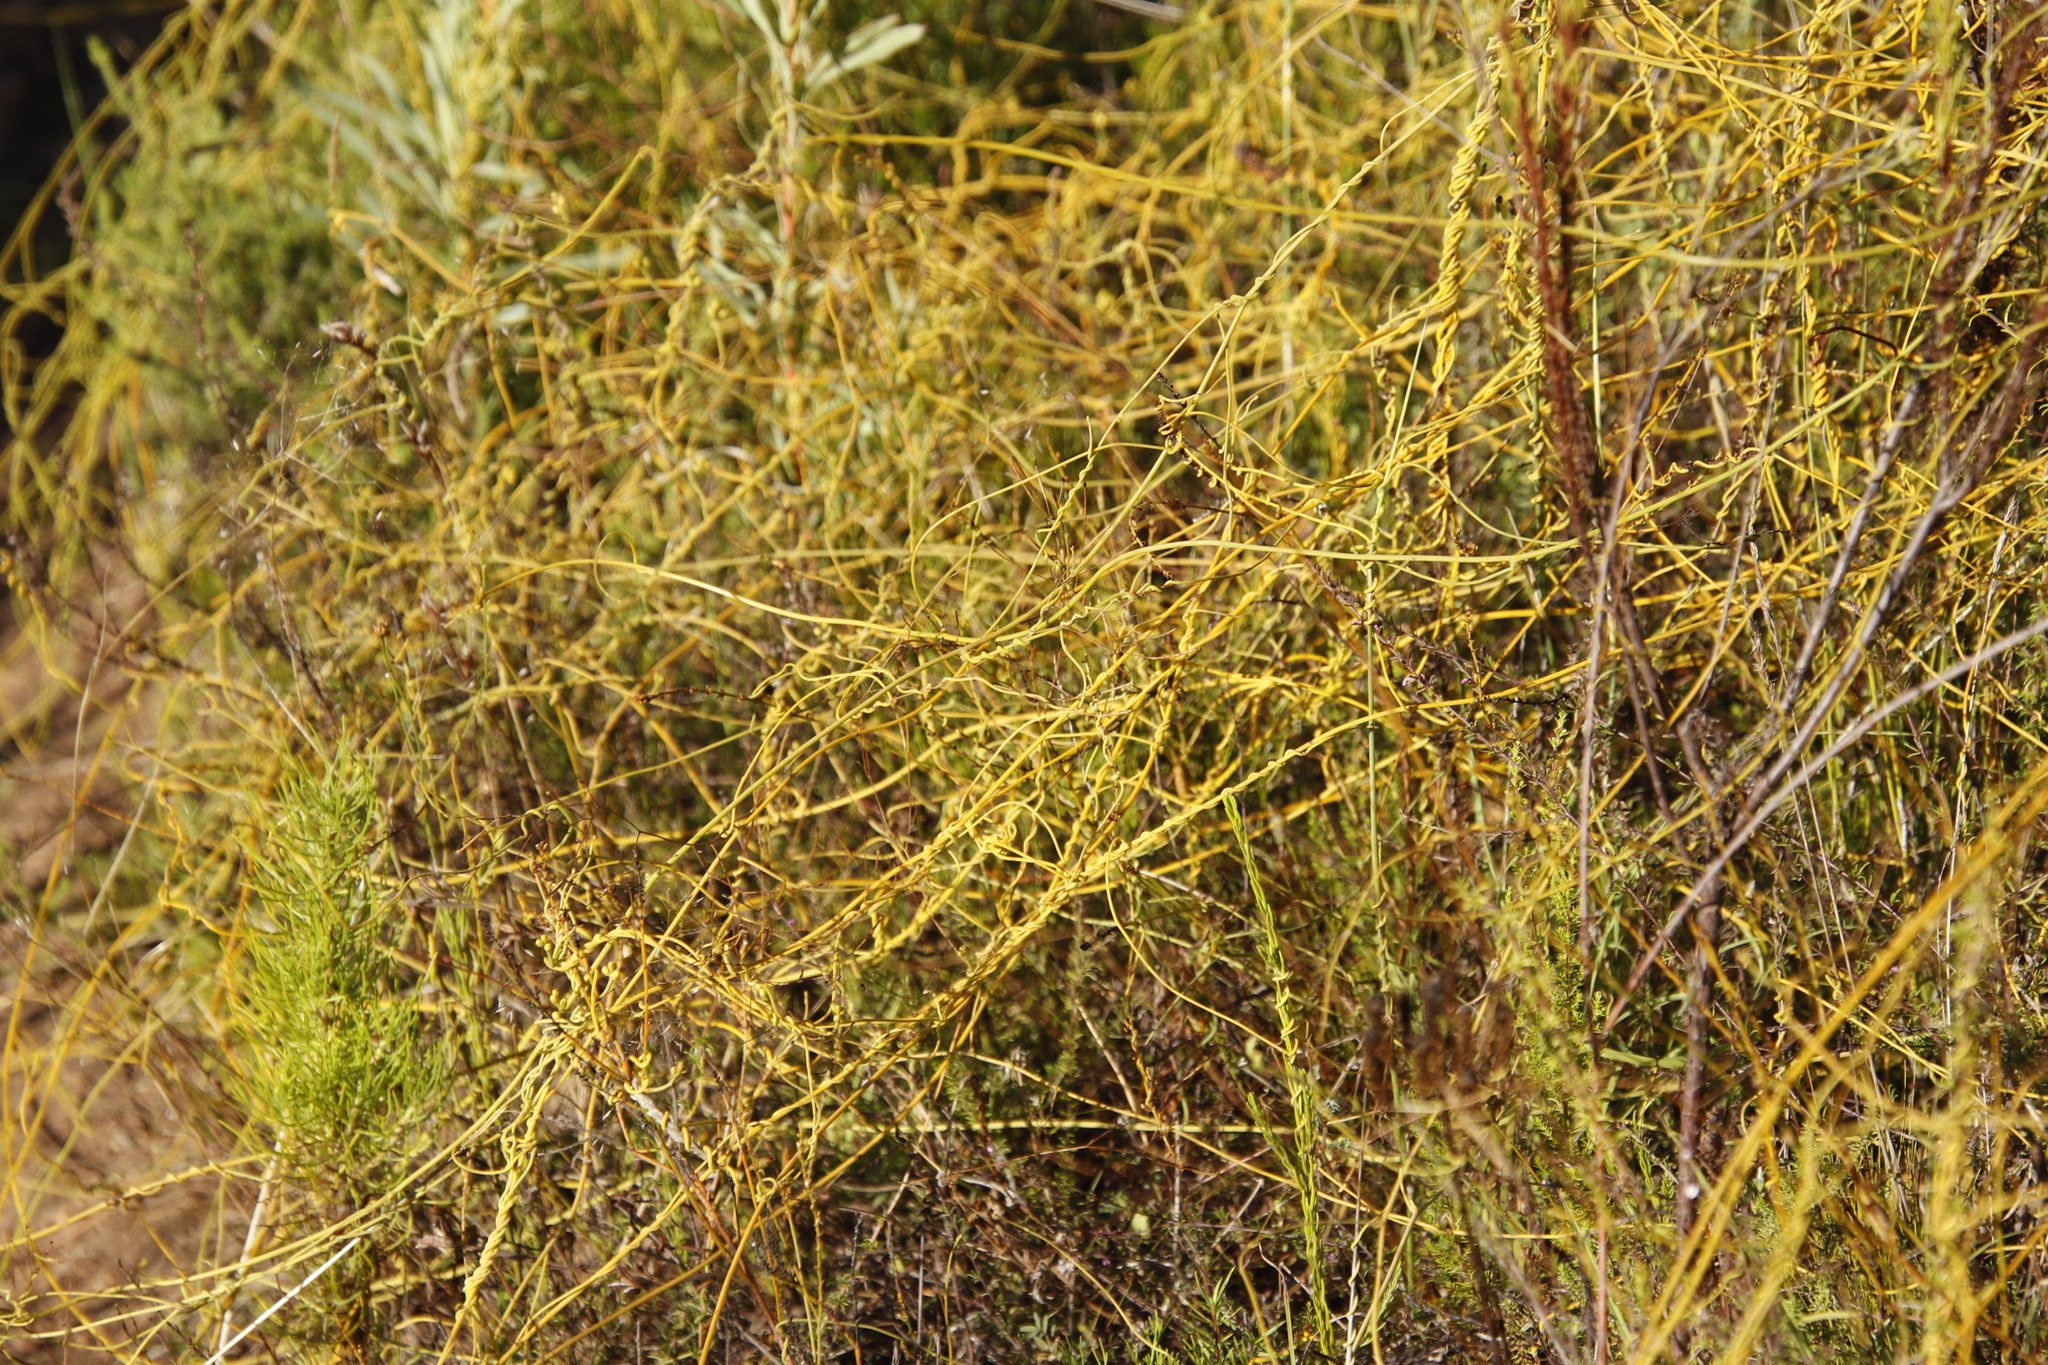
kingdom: Plantae
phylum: Tracheophyta
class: Magnoliopsida
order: Laurales
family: Lauraceae
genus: Cassytha
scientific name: Cassytha ciliolata
